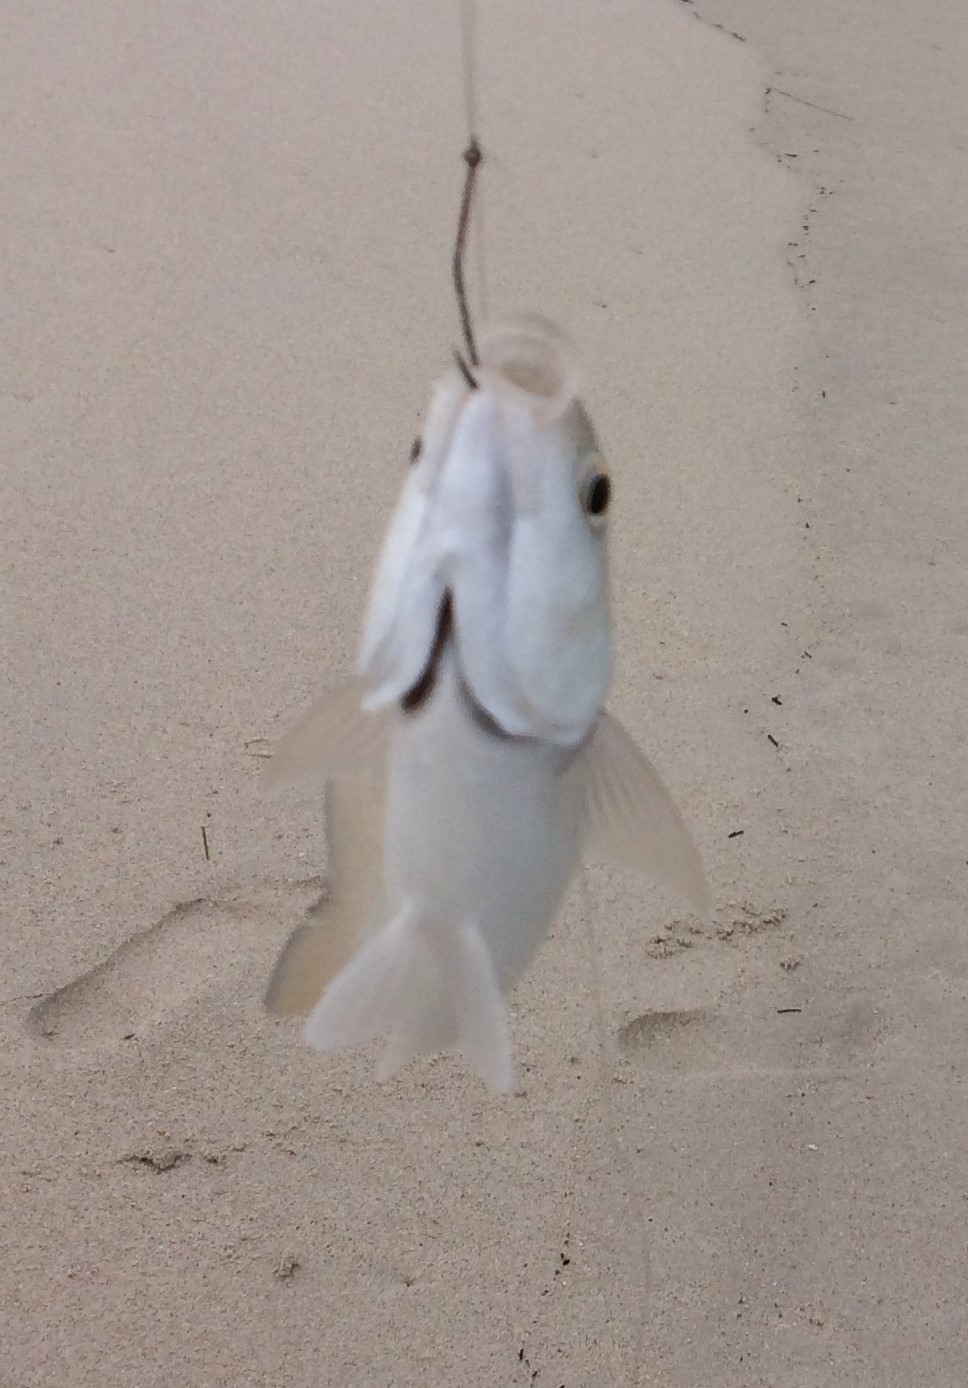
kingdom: Animalia
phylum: Chordata
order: Mugiliformes
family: Mugilidae
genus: Aldrichetta
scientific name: Aldrichetta forsteri
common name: Yellow-eye mullet
